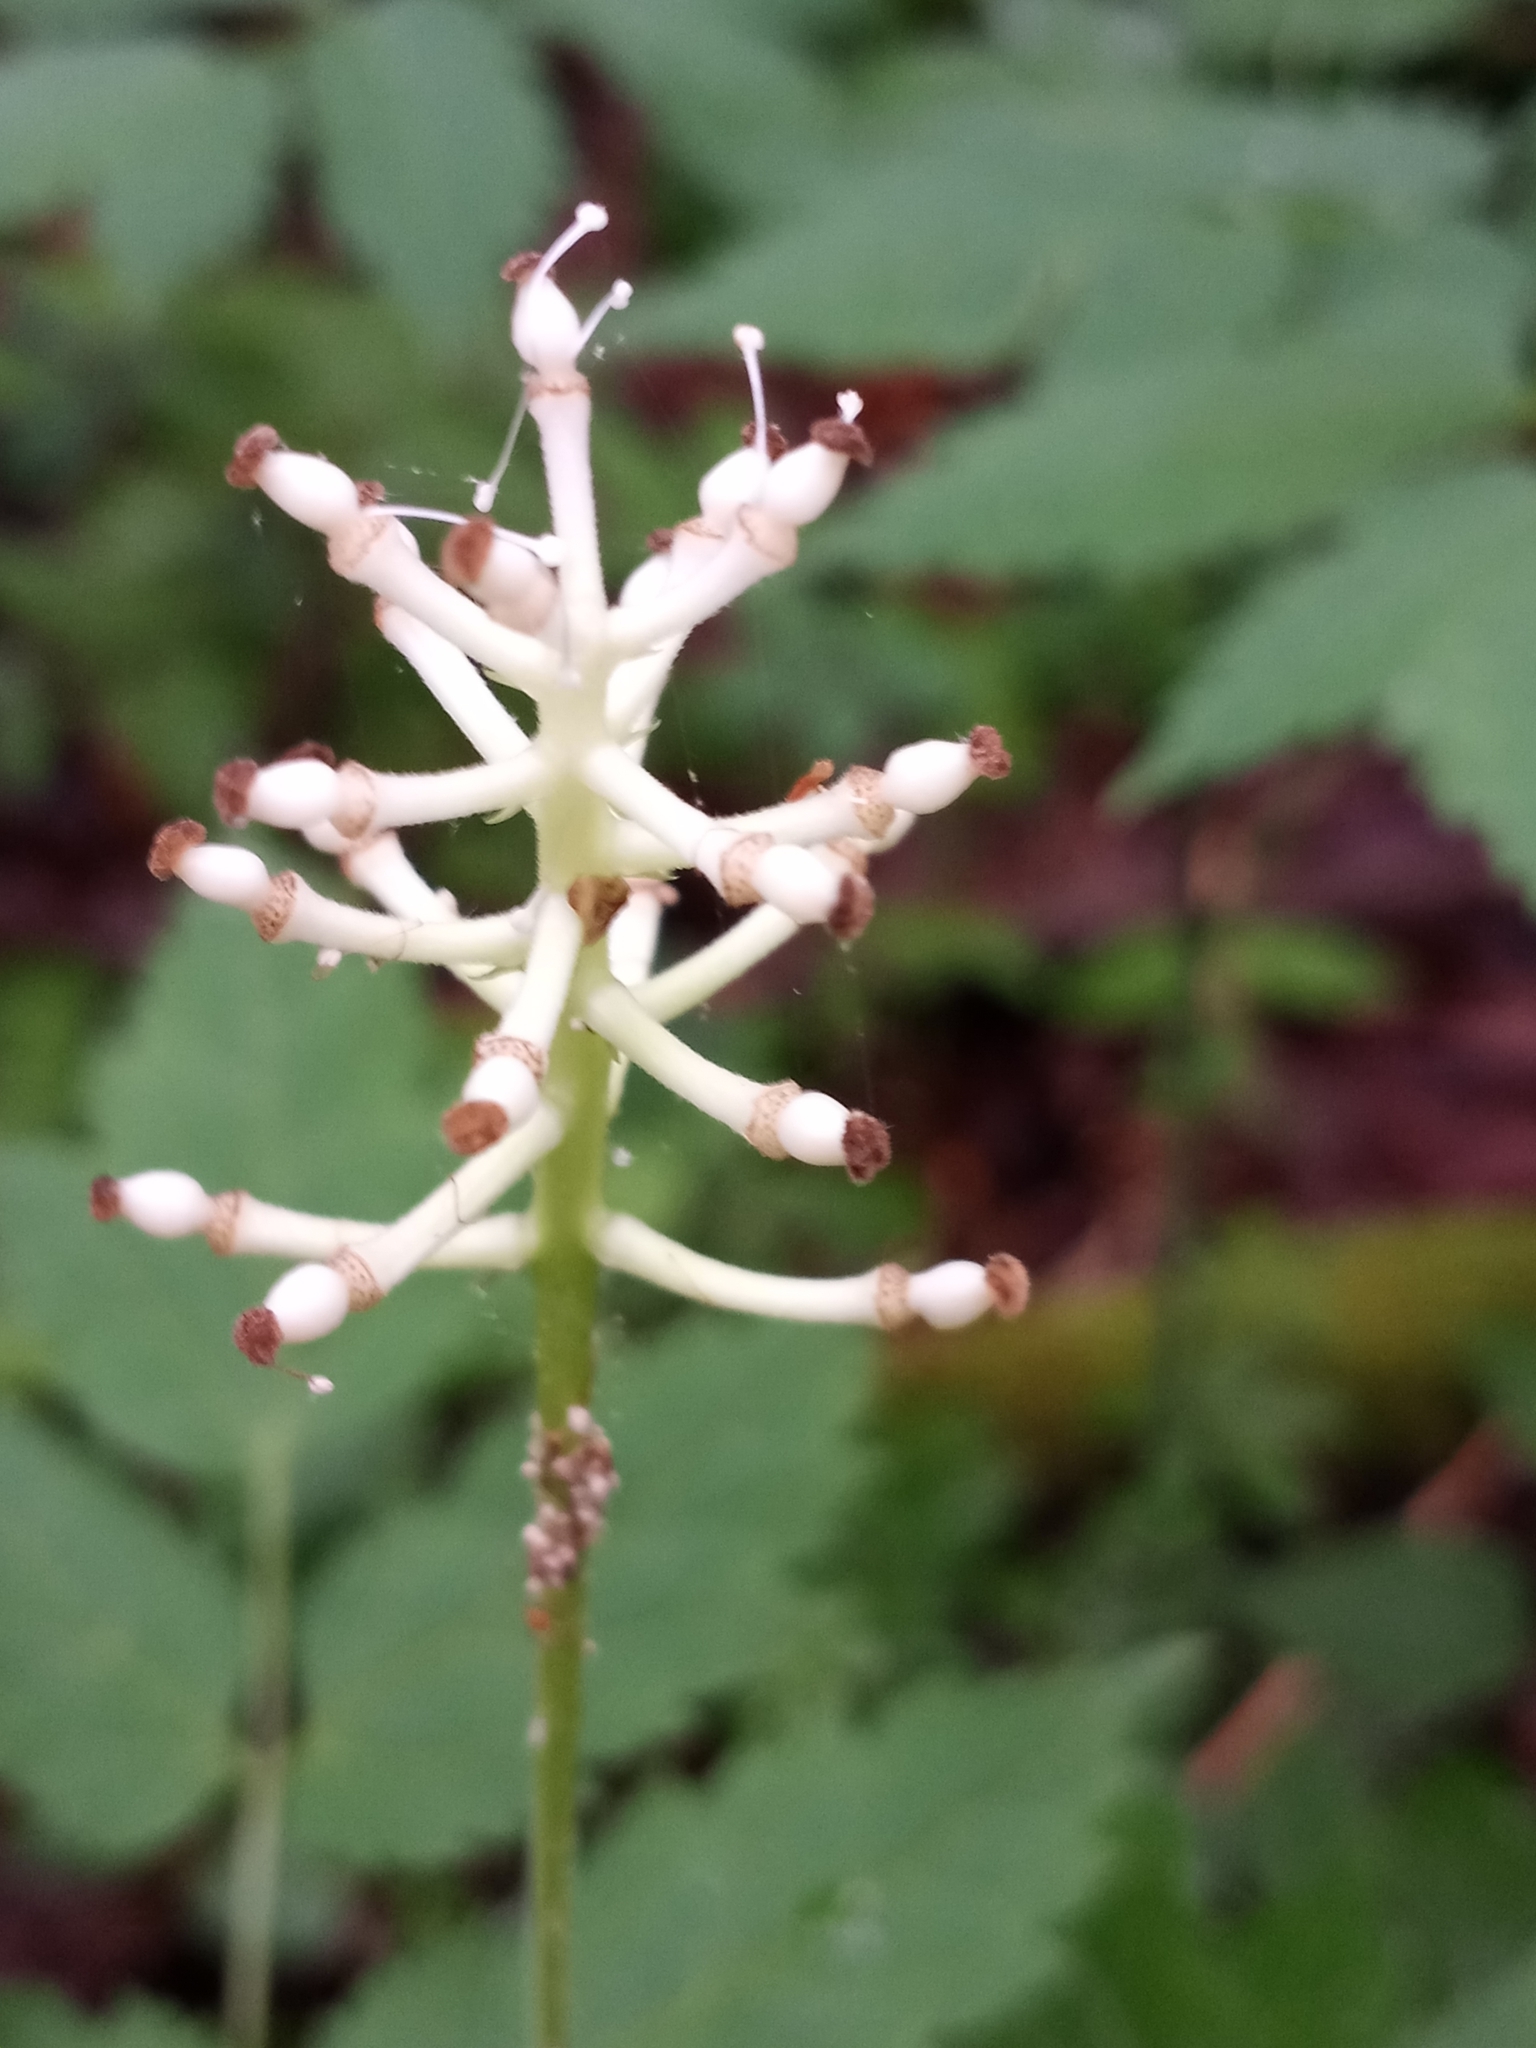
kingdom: Plantae
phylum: Tracheophyta
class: Magnoliopsida
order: Ranunculales
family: Ranunculaceae
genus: Actaea
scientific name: Actaea pachypoda
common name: Doll's-eyes
